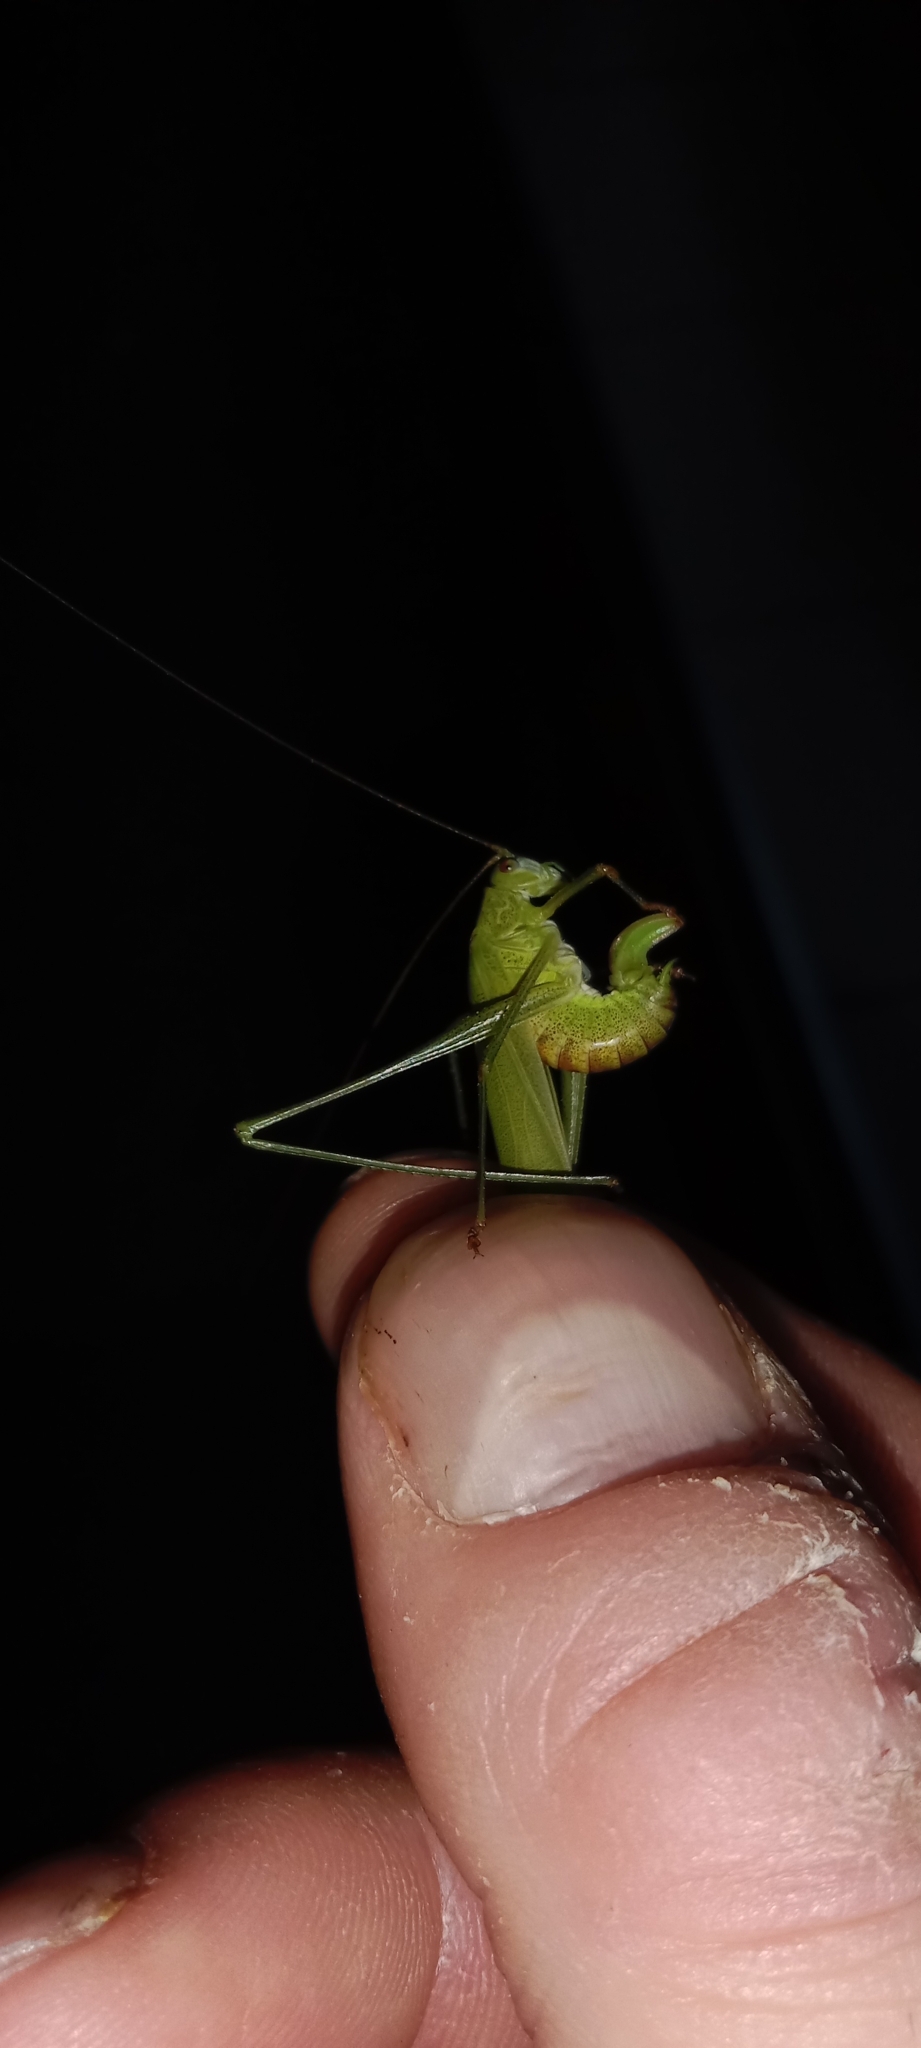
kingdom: Animalia
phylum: Arthropoda
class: Insecta
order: Orthoptera
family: Tettigoniidae
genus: Phaneroptera
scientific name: Phaneroptera falcata
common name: Sickle-bearing bush-cricket
